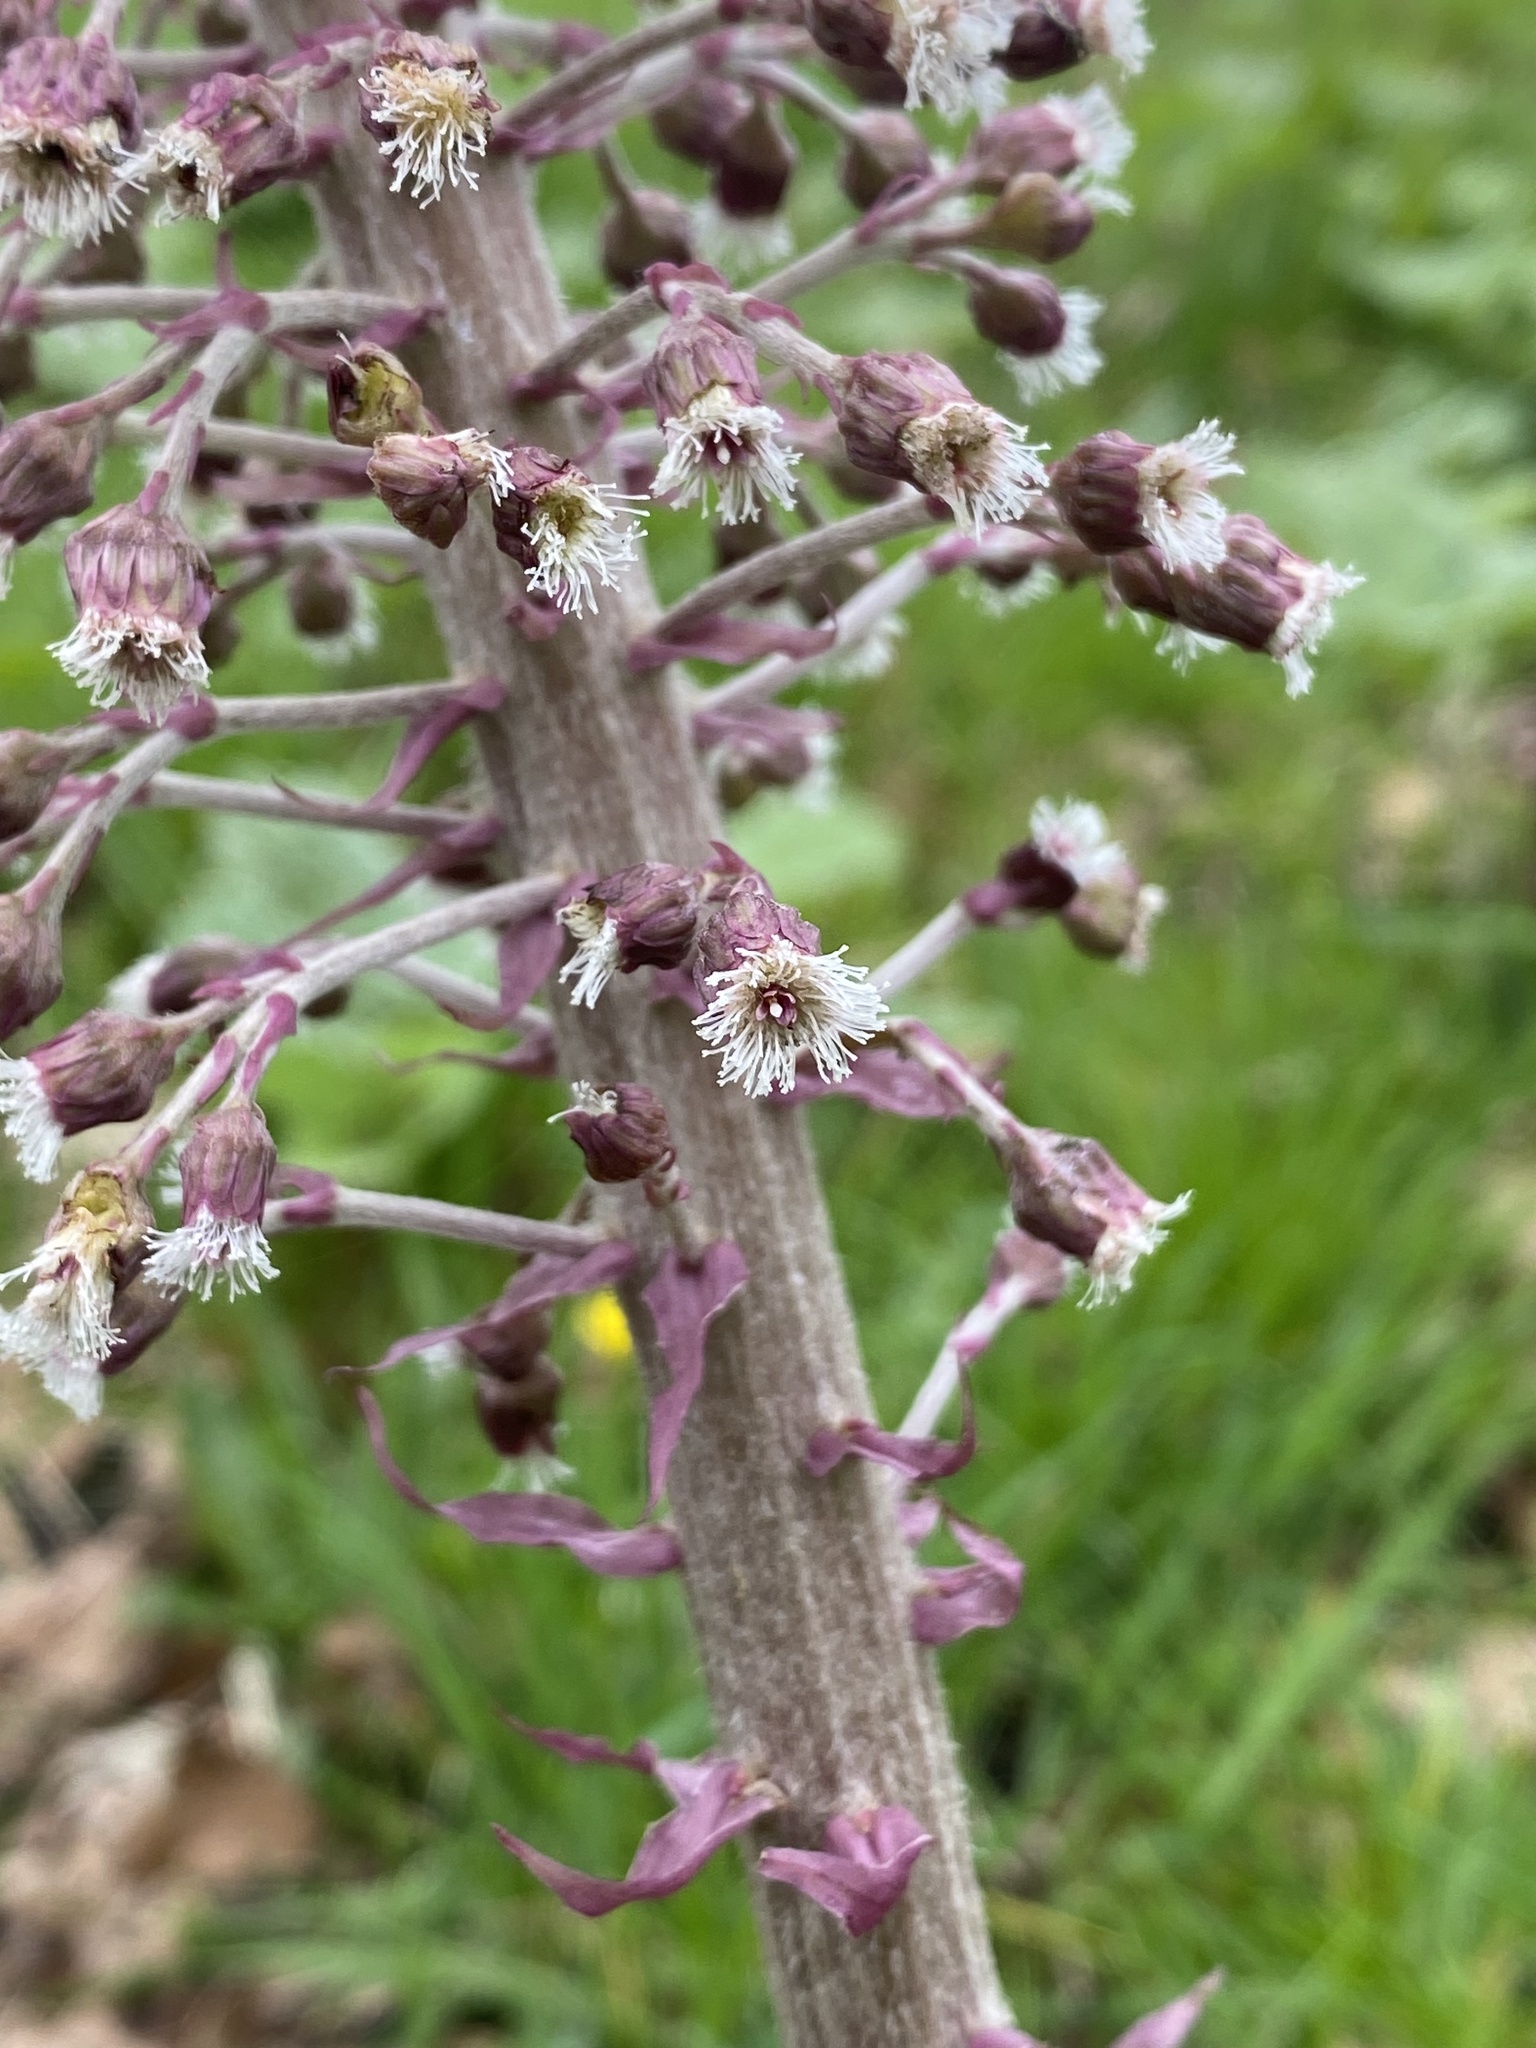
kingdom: Plantae
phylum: Tracheophyta
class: Magnoliopsida
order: Asterales
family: Asteraceae
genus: Petasites
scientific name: Petasites hybridus
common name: Butterbur
